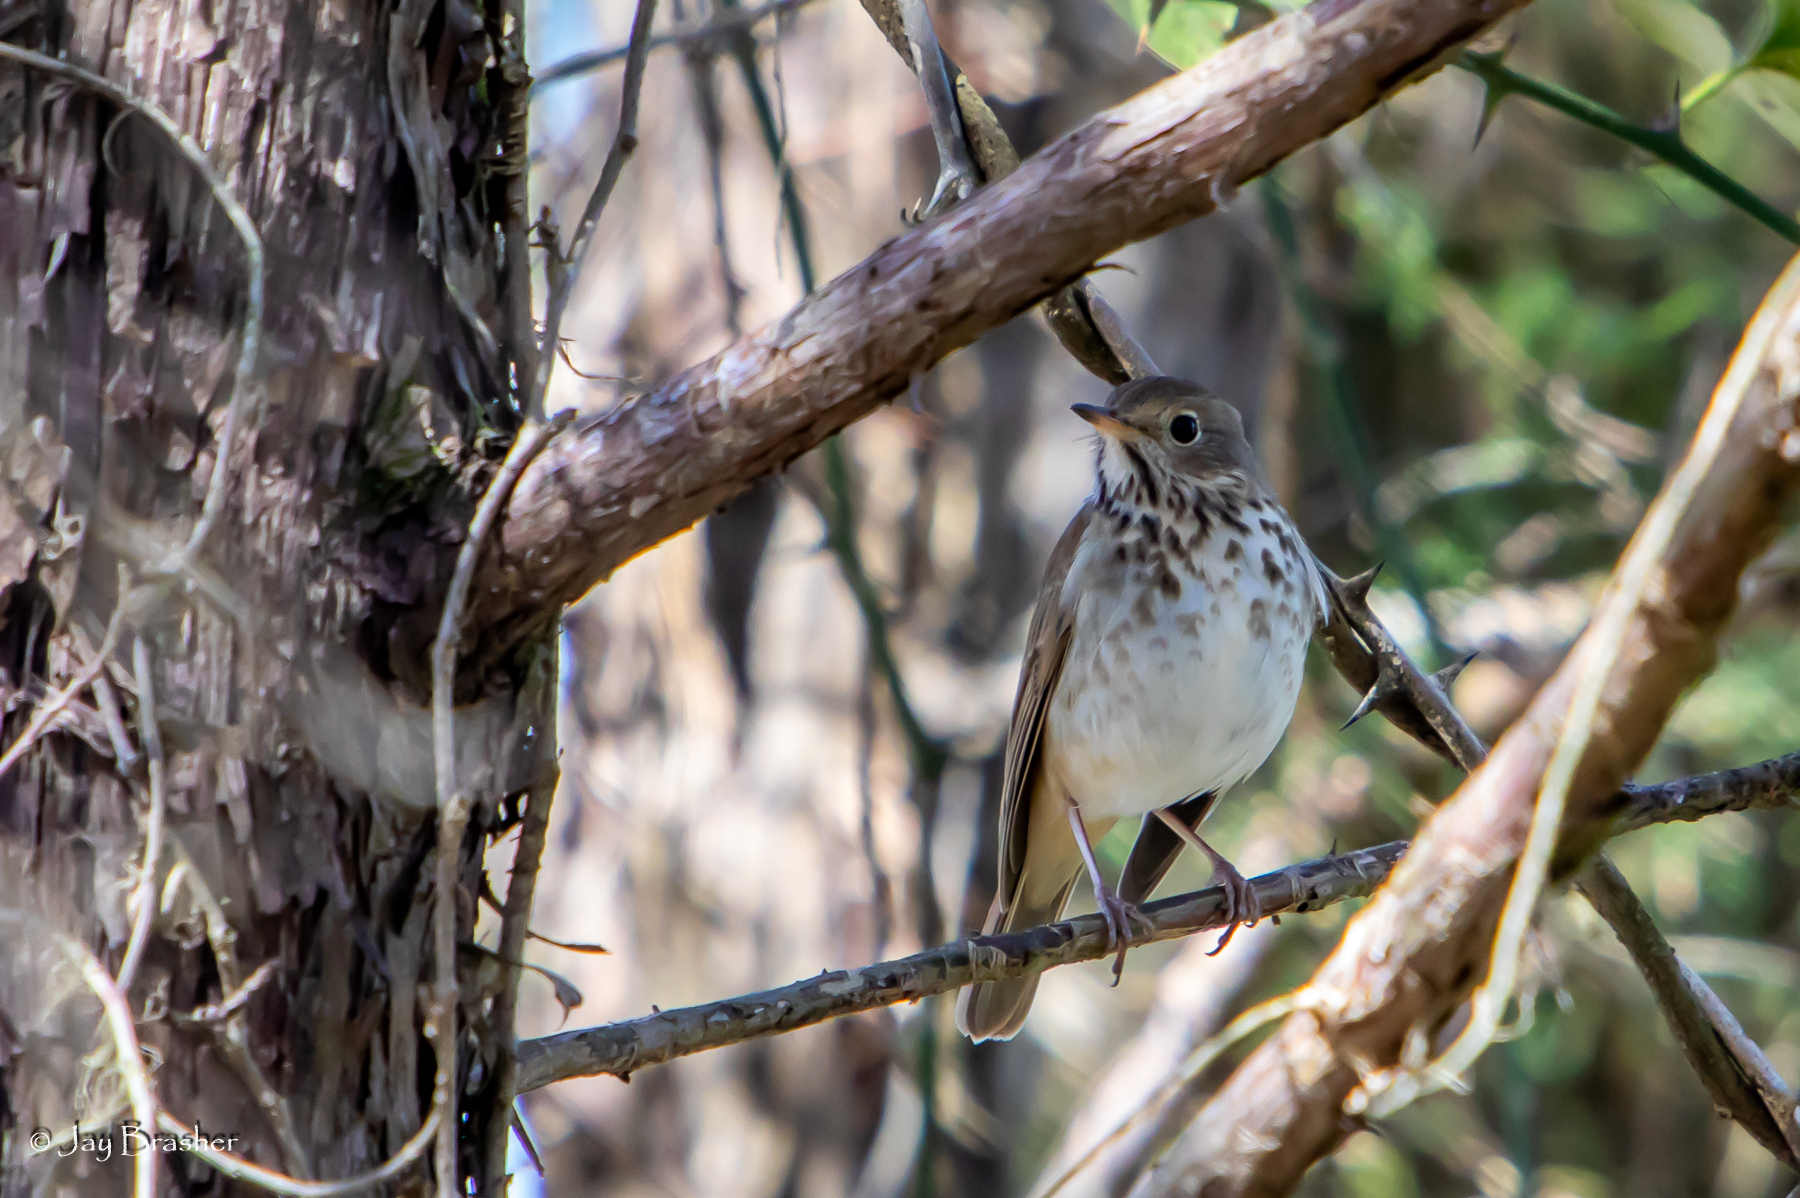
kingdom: Animalia
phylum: Chordata
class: Aves
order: Passeriformes
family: Turdidae
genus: Catharus
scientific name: Catharus guttatus
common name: Hermit thrush
